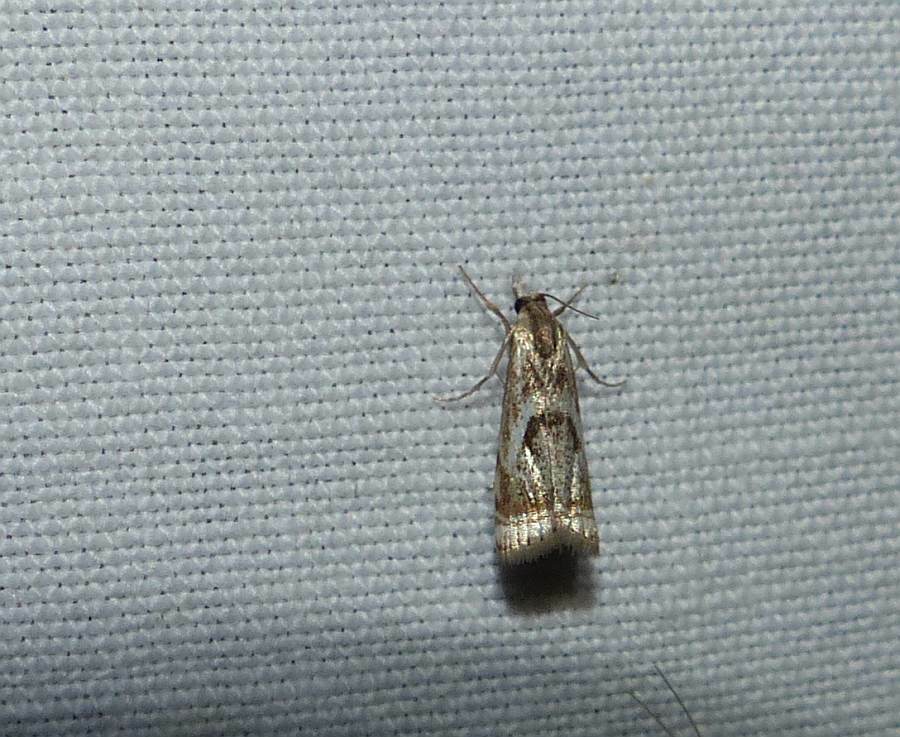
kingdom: Animalia
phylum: Arthropoda
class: Insecta
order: Lepidoptera
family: Crambidae
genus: Microcrambus
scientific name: Microcrambus elegans
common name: Elegant grass-veneer
